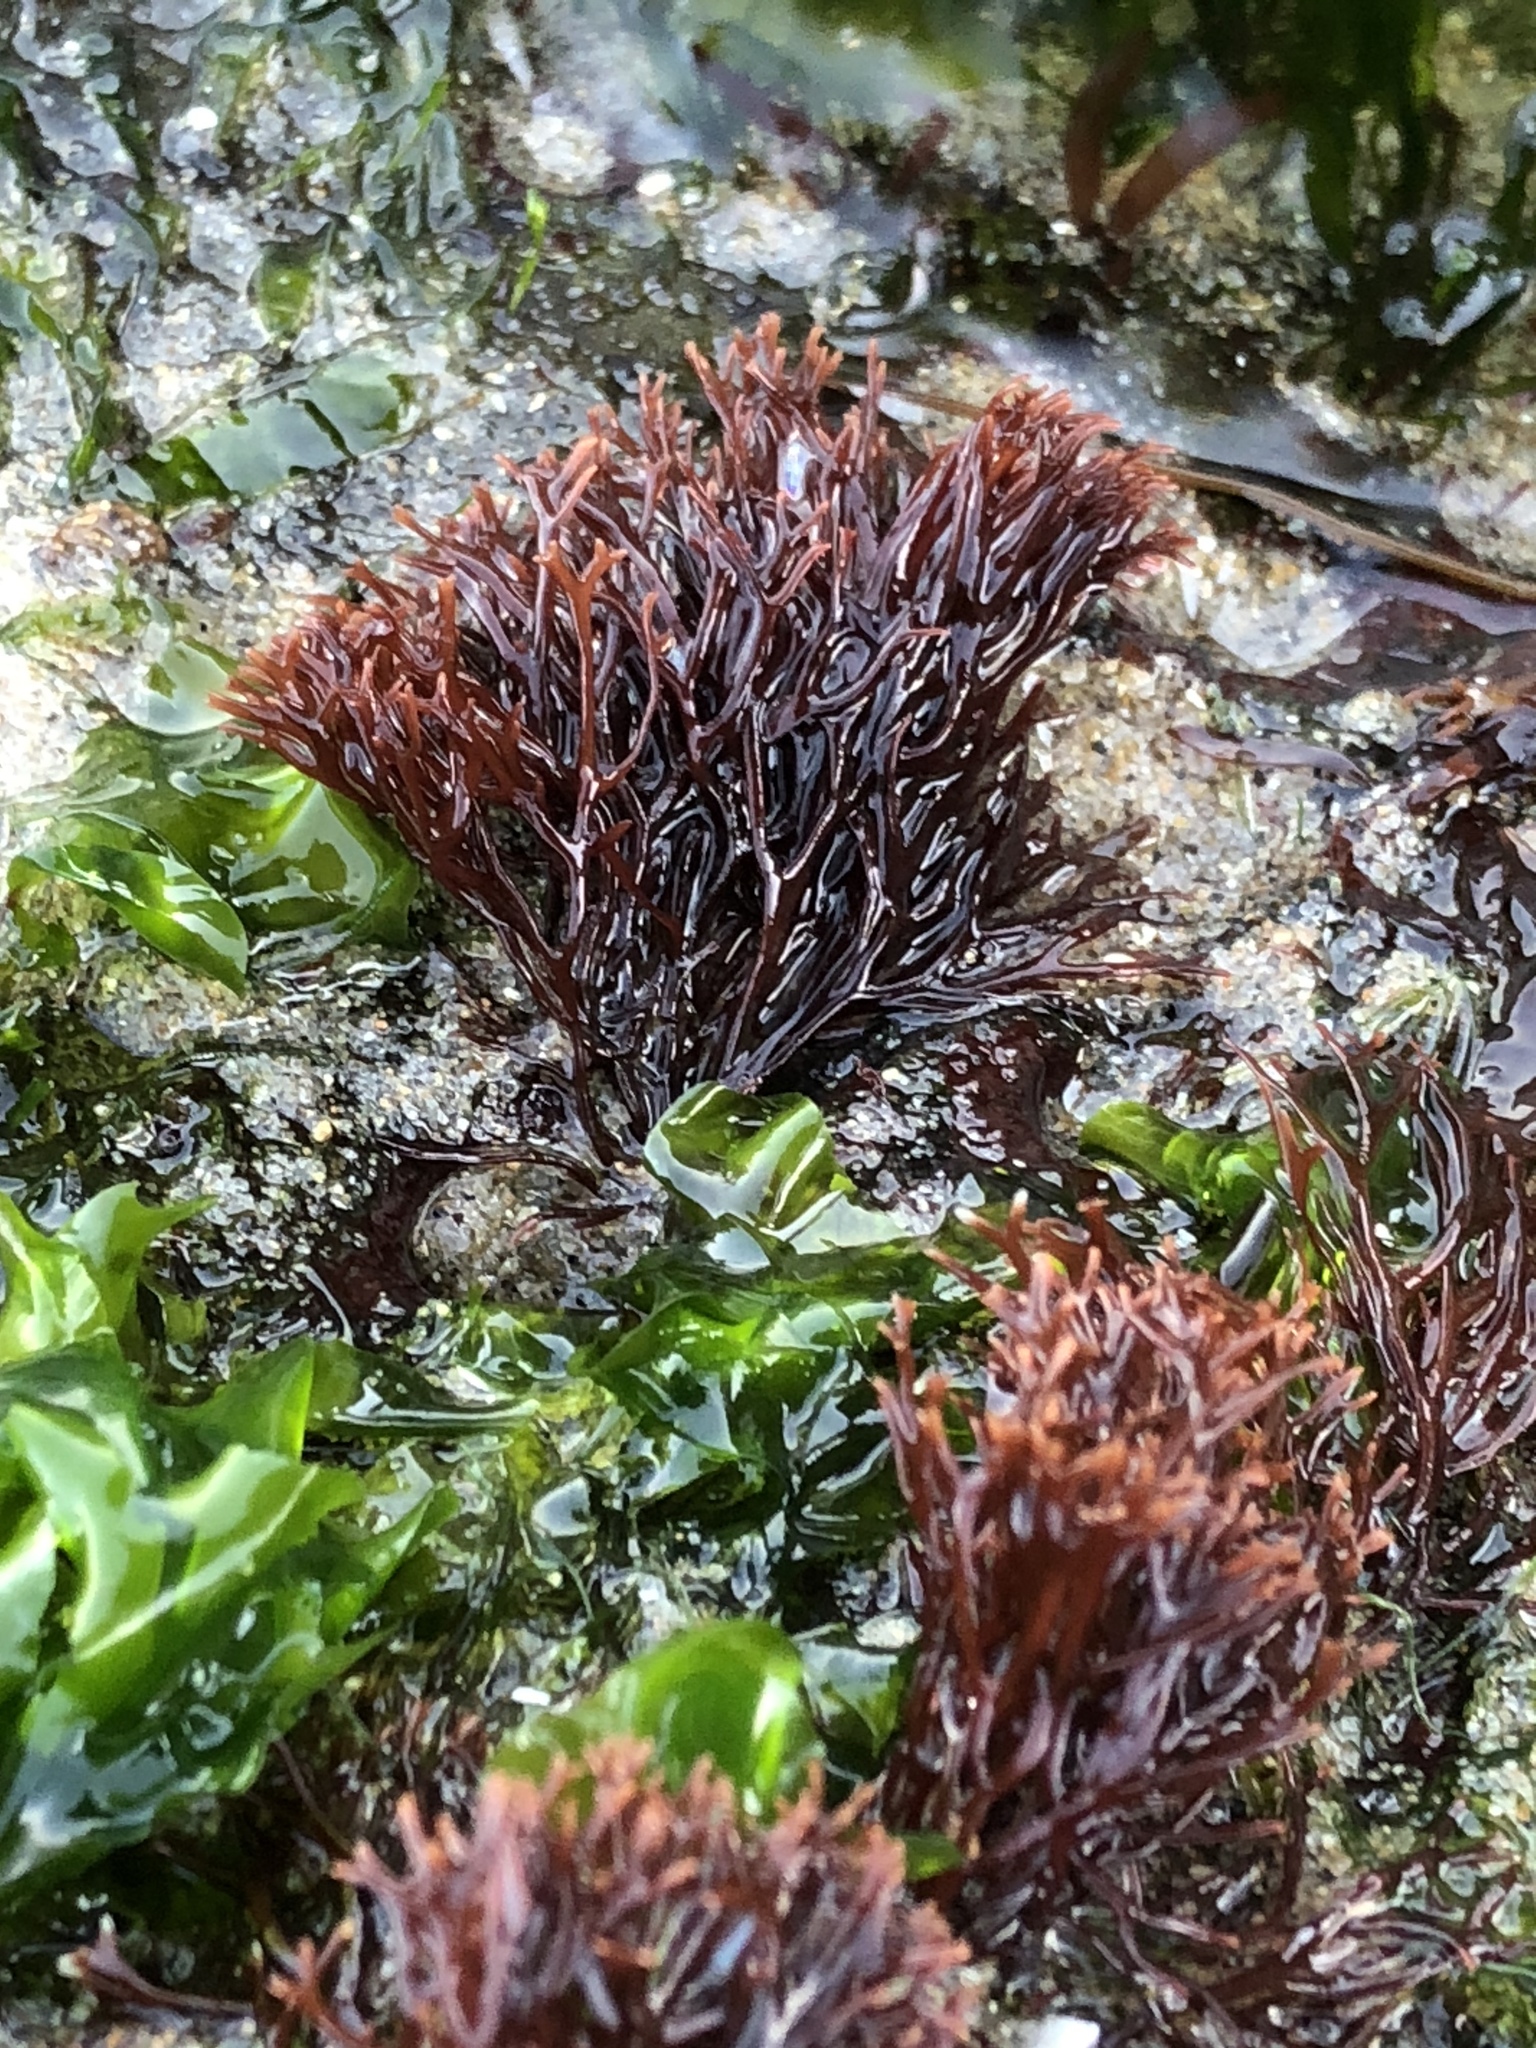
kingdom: Plantae
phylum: Rhodophyta
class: Florideophyceae
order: Gigartinales
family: Phyllophoraceae
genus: Ahnfeltiopsis
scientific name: Ahnfeltiopsis linearis
